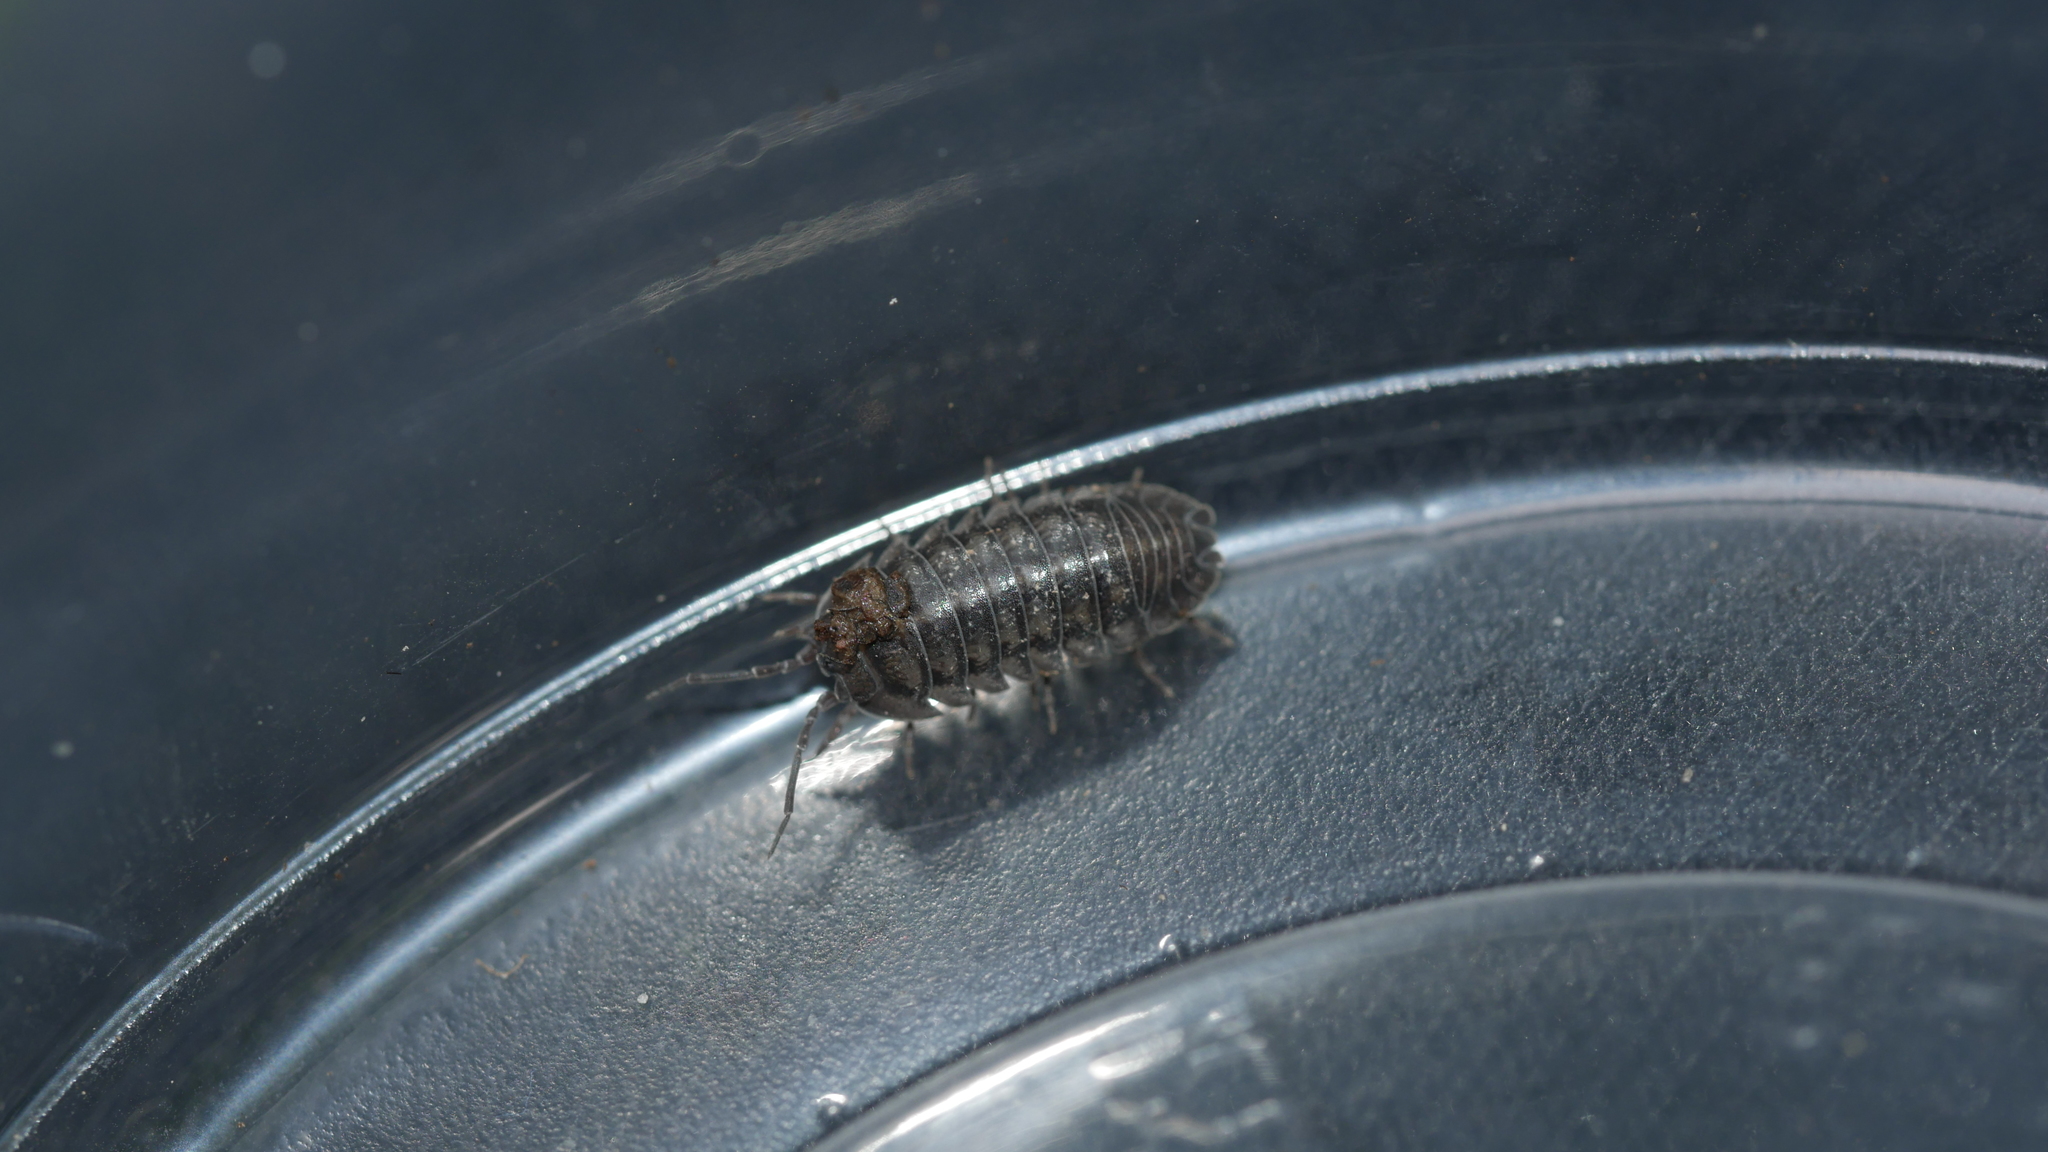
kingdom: Animalia
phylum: Arthropoda
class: Malacostraca
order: Isopoda
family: Armadillidiidae
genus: Armadillidium
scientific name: Armadillidium nasatum
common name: Isopod
